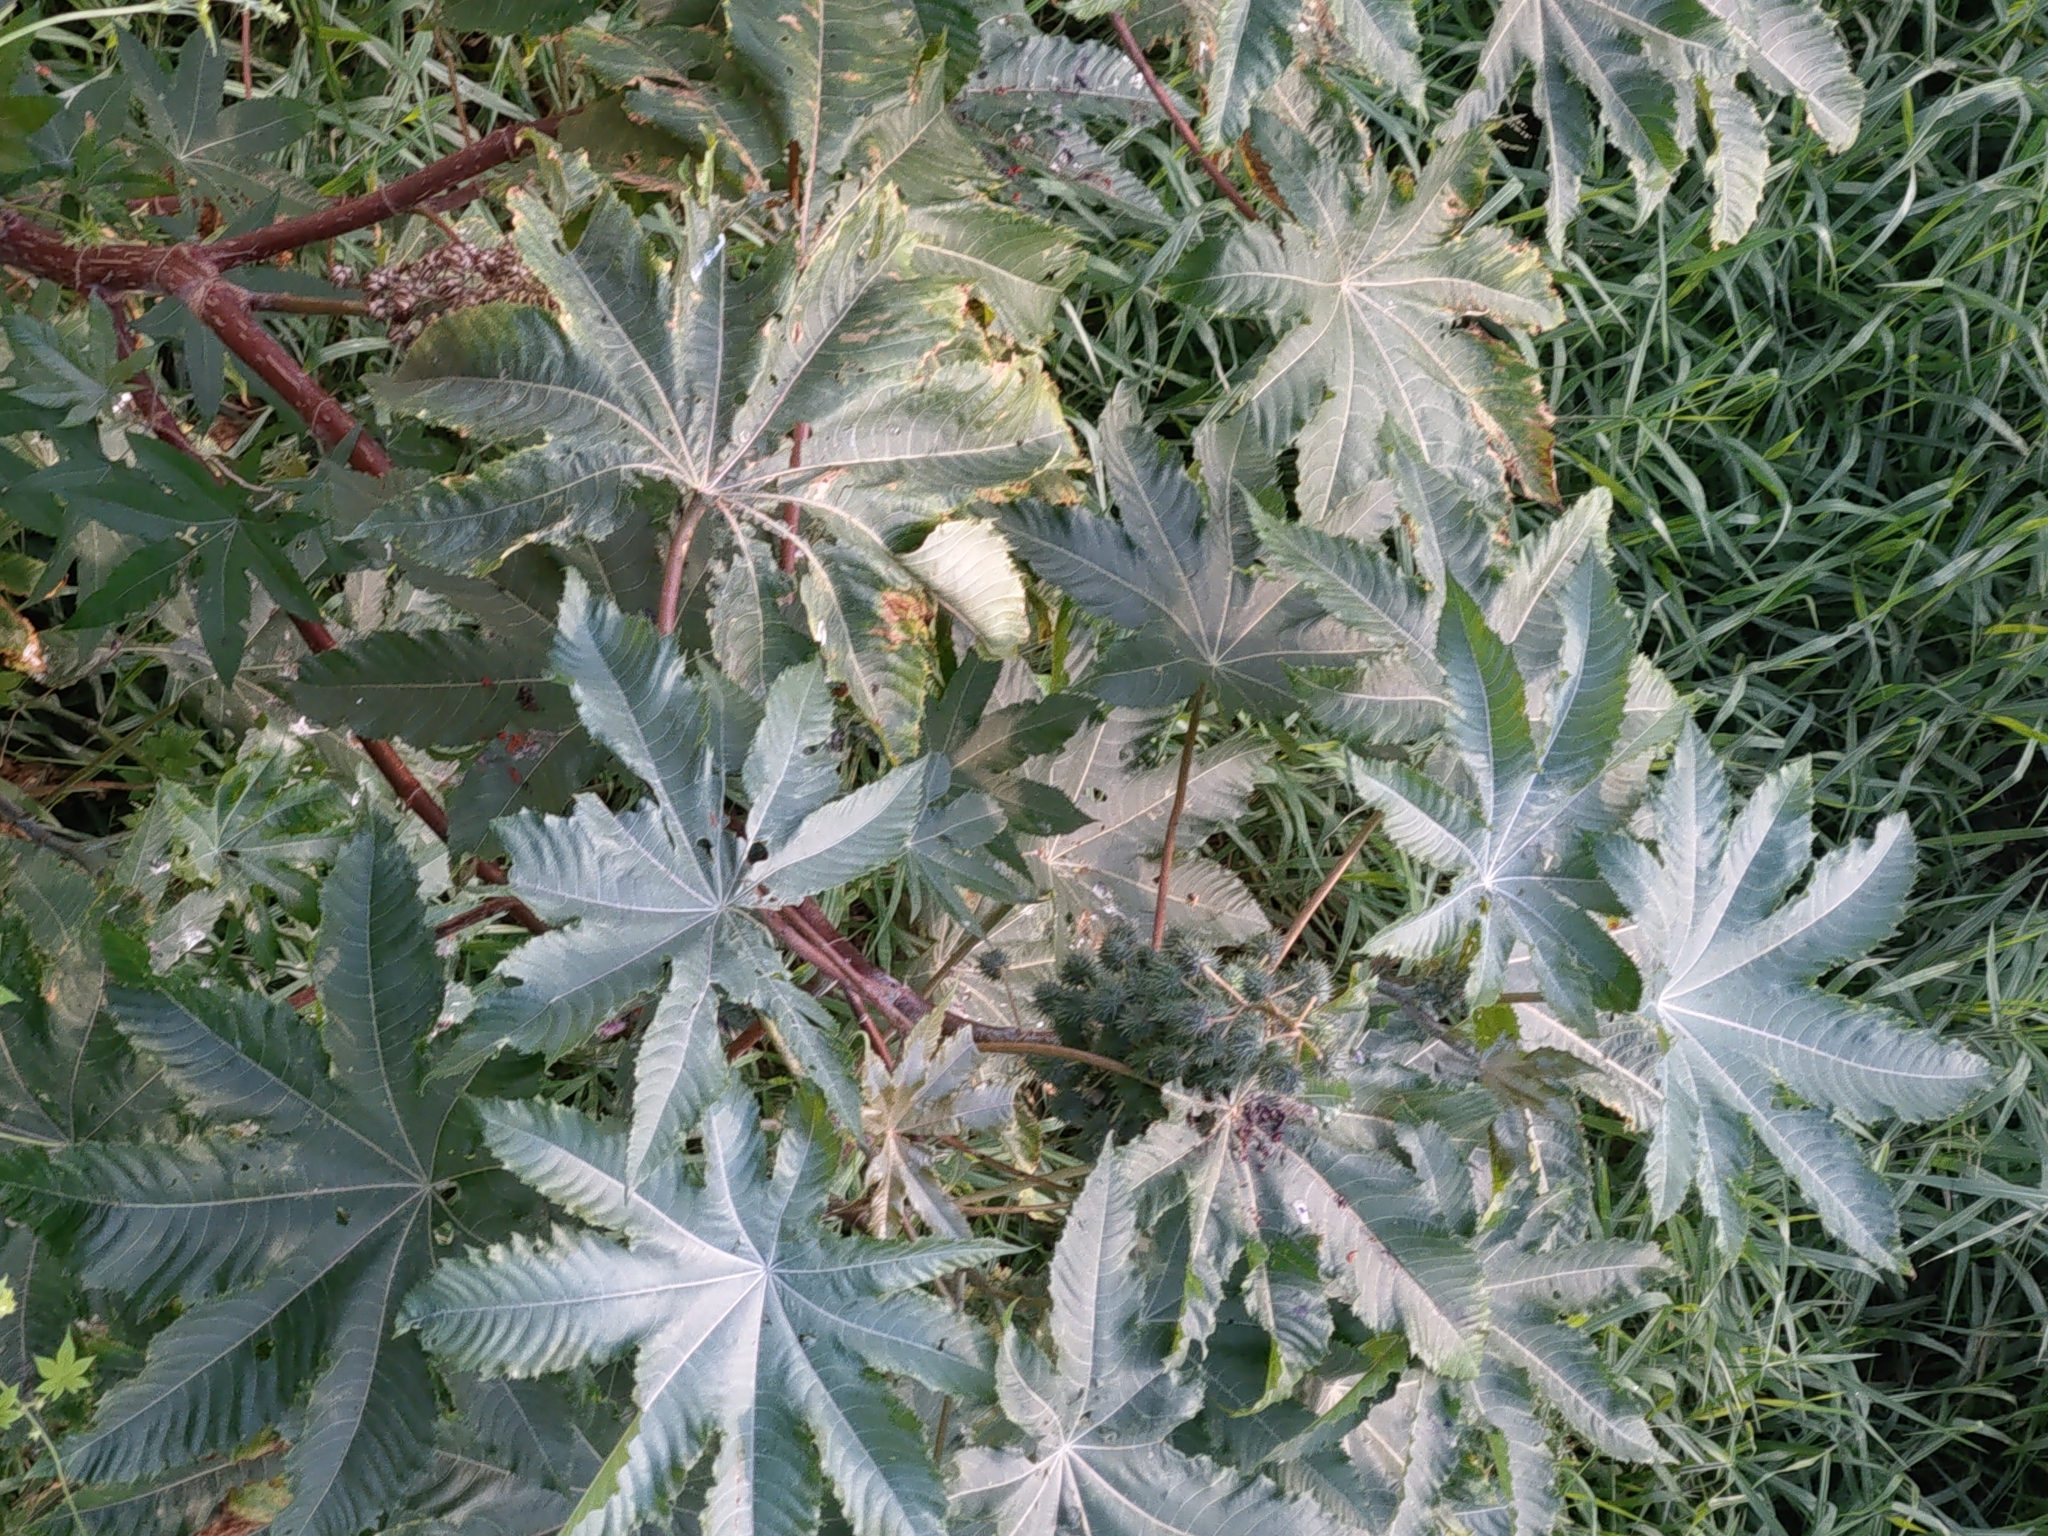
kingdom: Plantae
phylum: Tracheophyta
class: Magnoliopsida
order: Malpighiales
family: Euphorbiaceae
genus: Ricinus
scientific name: Ricinus communis
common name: Castor-oil-plant
